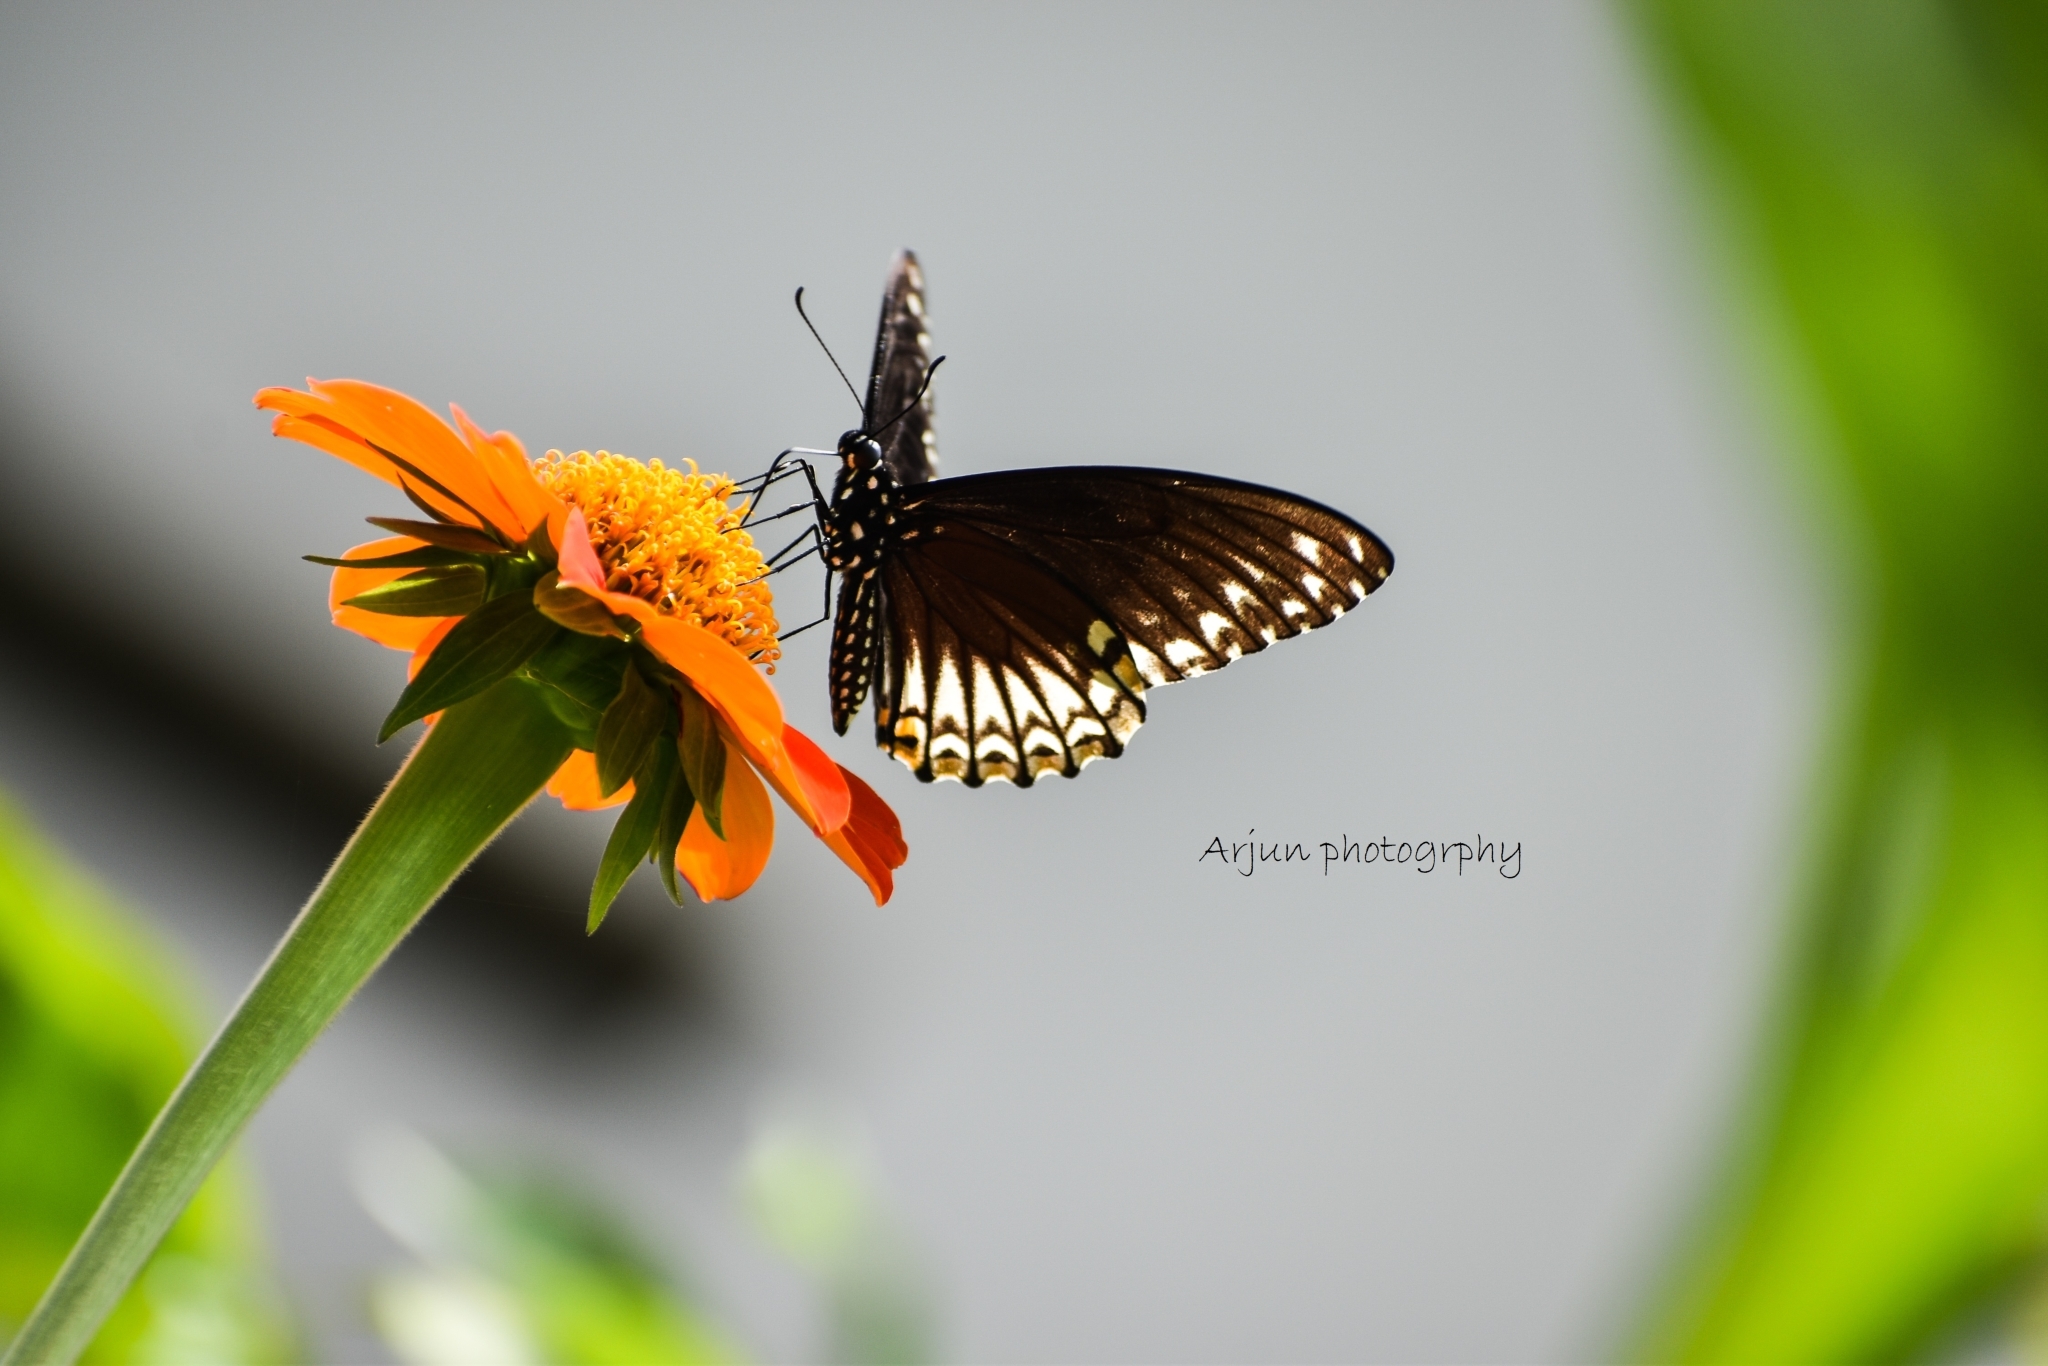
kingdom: Animalia
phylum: Arthropoda
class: Insecta
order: Lepidoptera
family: Papilionidae
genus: Chilasa
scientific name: Chilasa clytia
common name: Common mime
